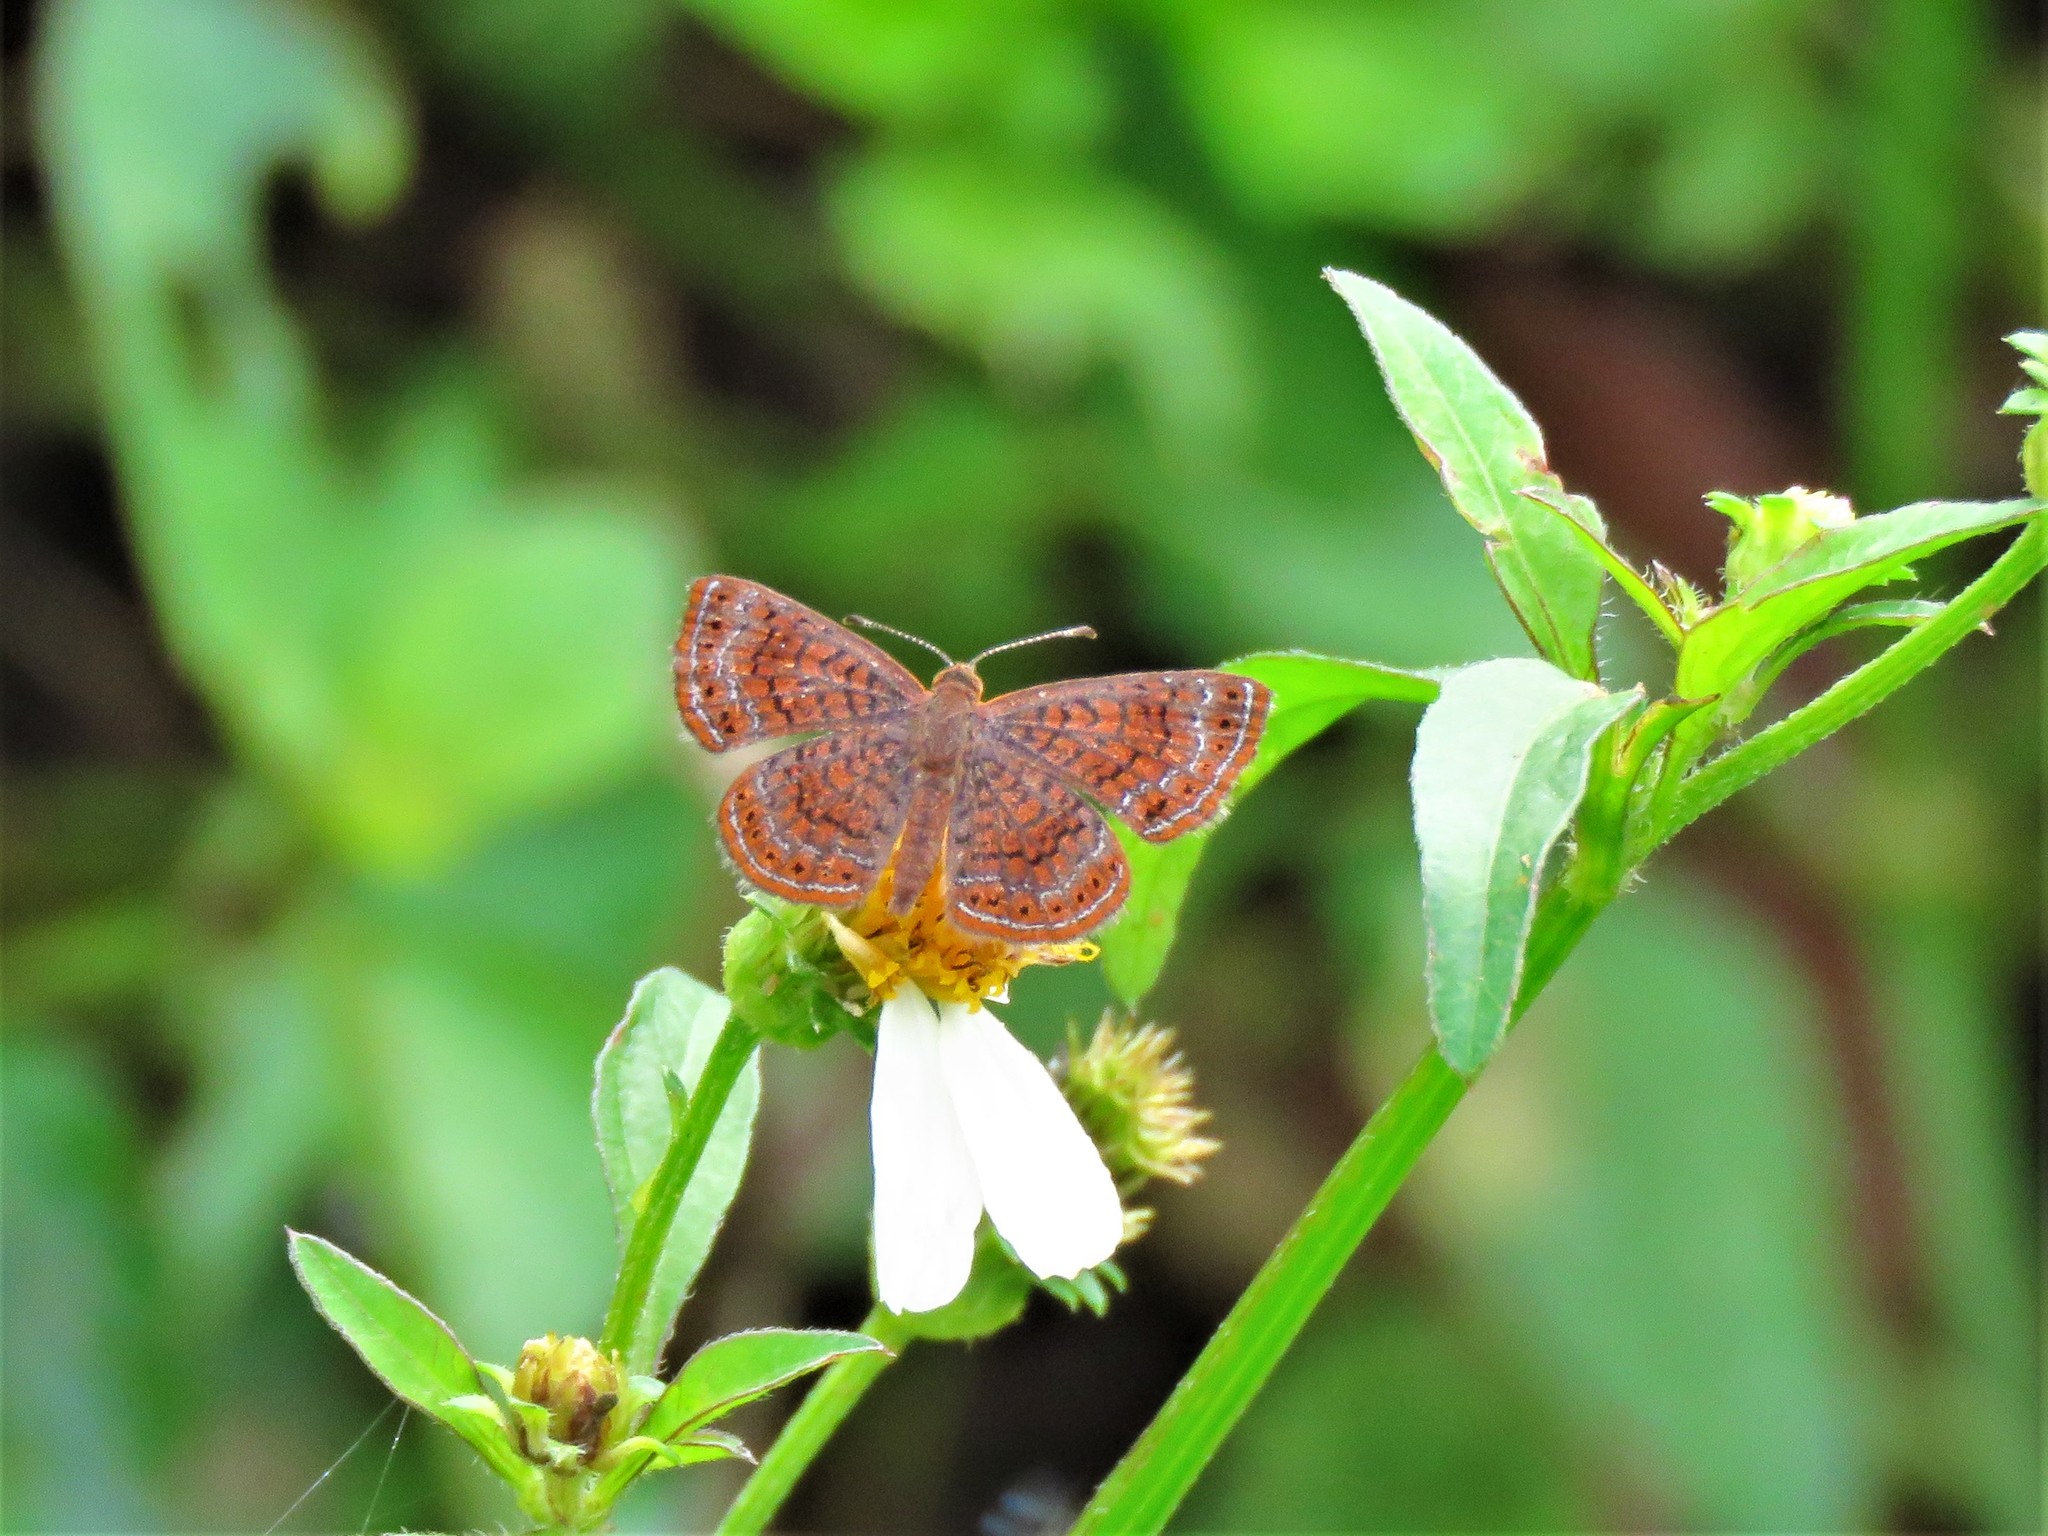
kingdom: Animalia
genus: Calephelis
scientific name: Calephelis nemesis
